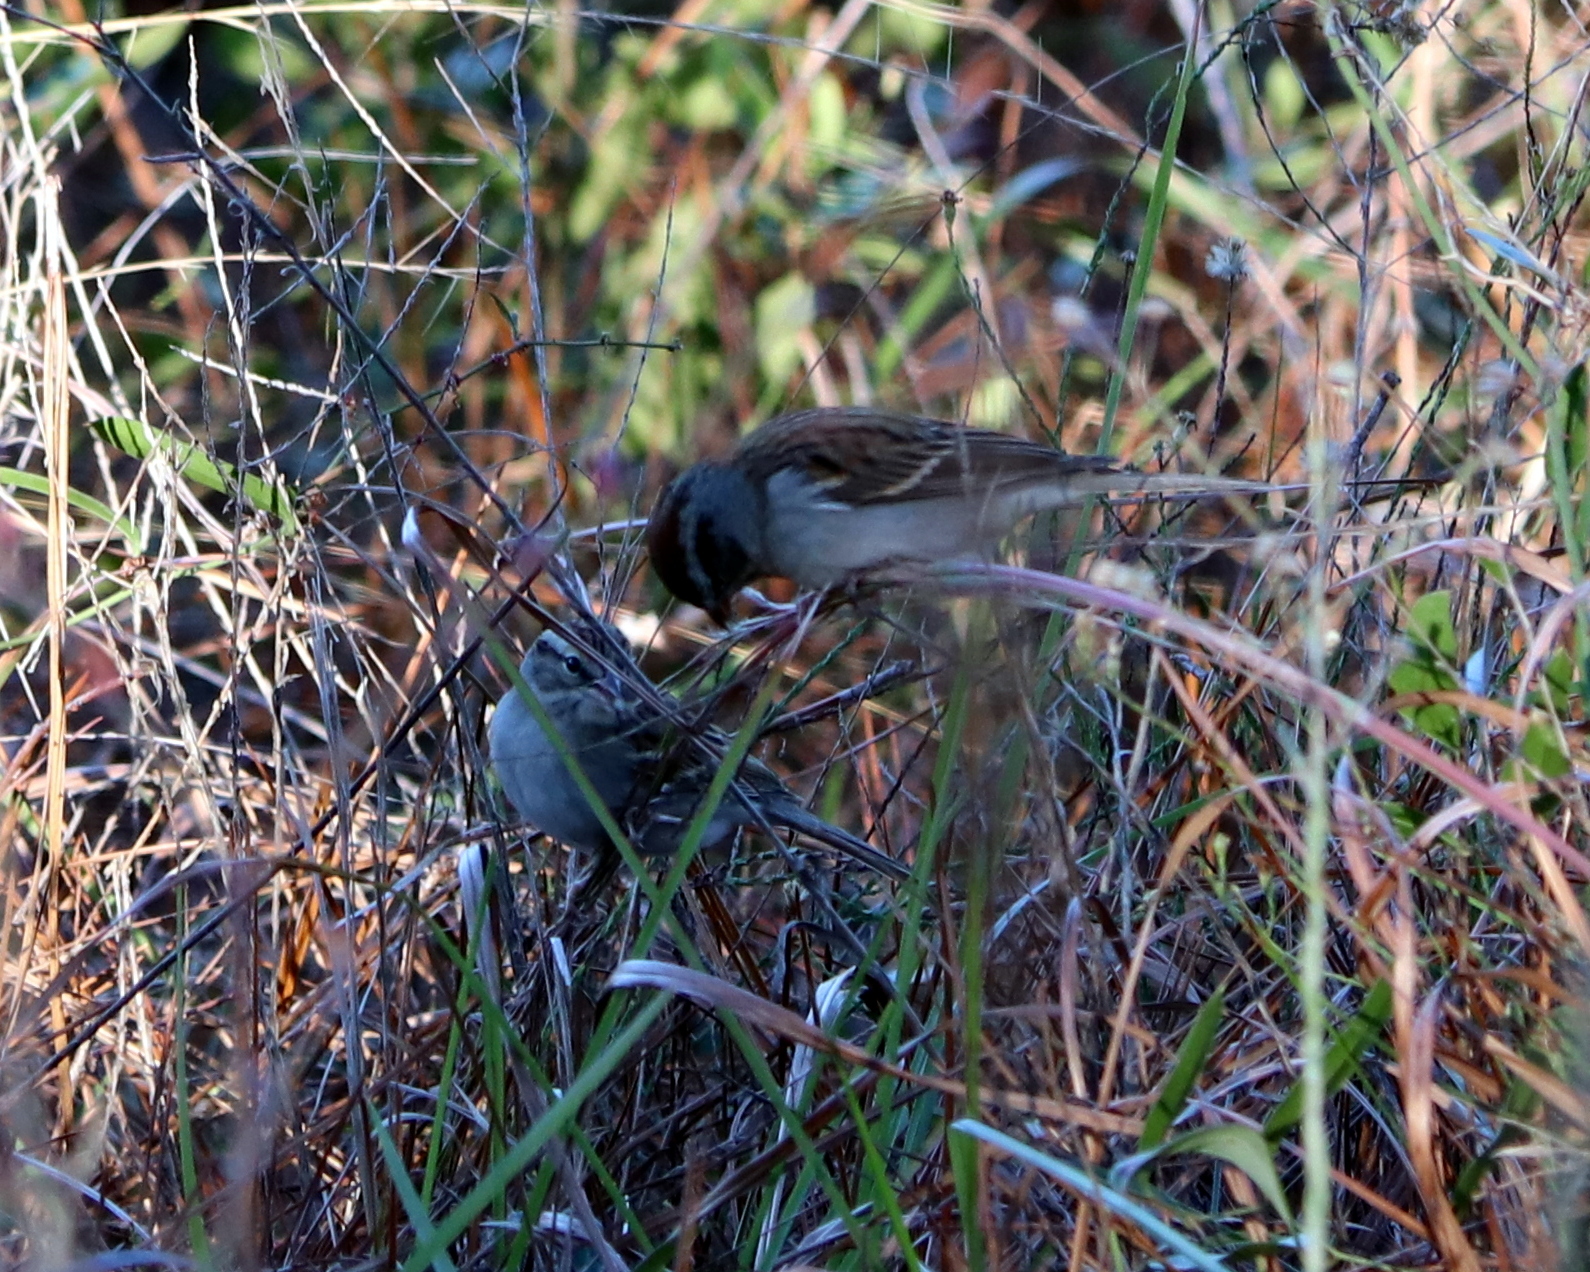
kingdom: Animalia
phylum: Chordata
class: Aves
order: Passeriformes
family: Passerellidae
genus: Spizella
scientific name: Spizella passerina
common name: Chipping sparrow
